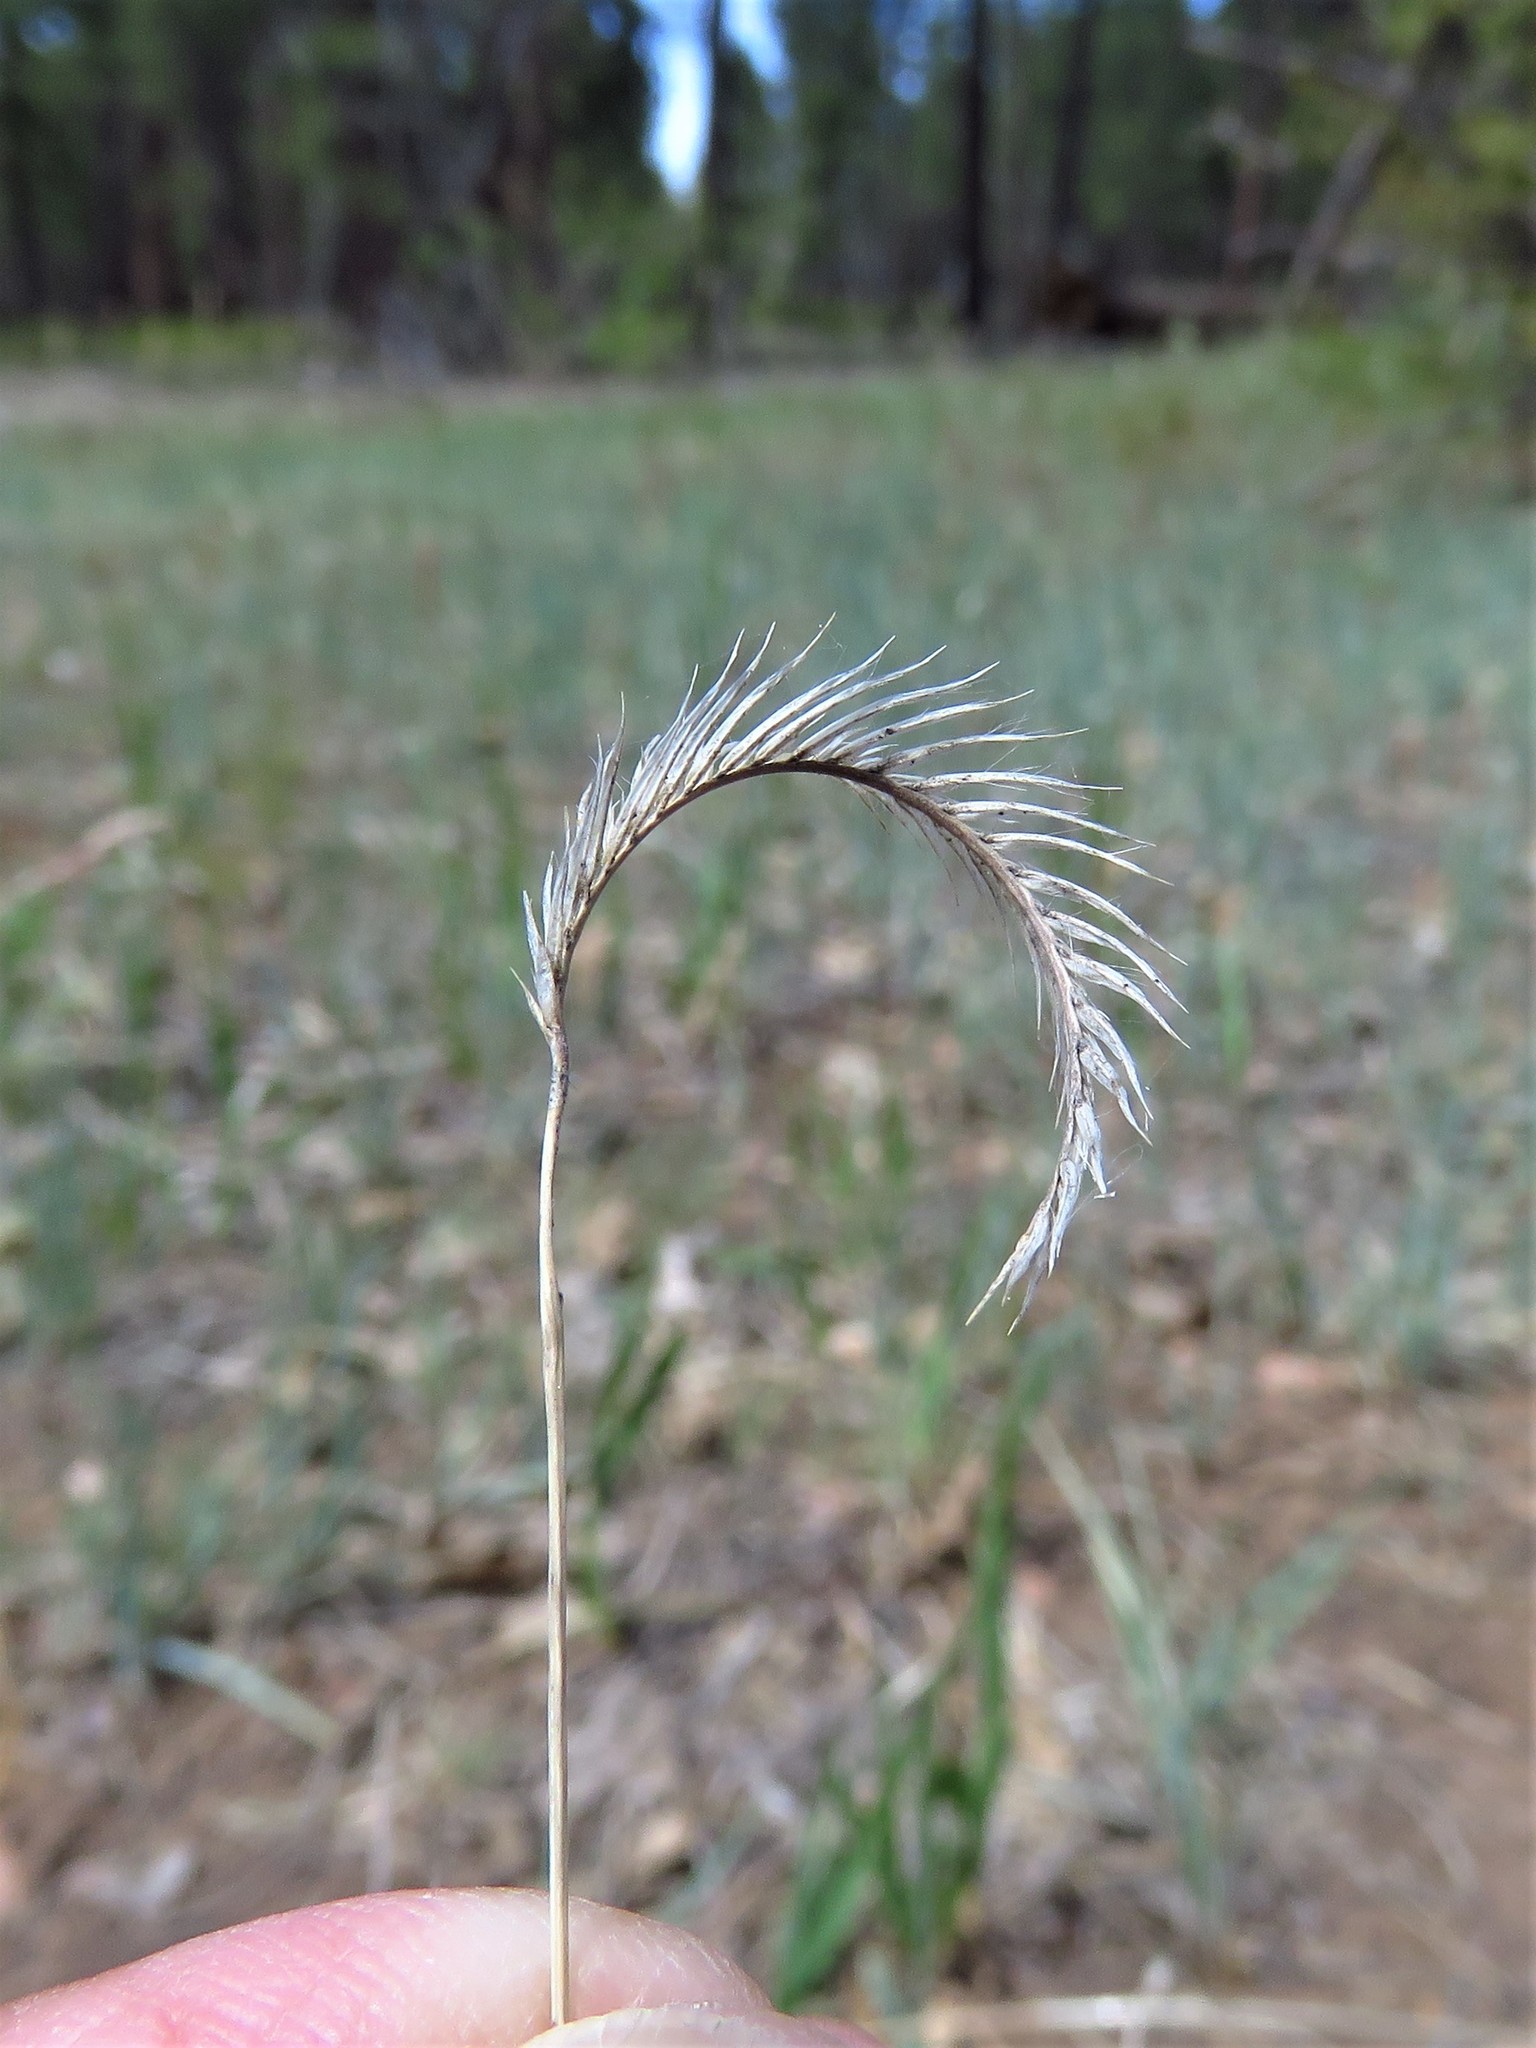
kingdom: Plantae
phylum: Tracheophyta
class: Liliopsida
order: Poales
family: Poaceae
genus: Bouteloua
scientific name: Bouteloua gracilis
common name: Blue grama
